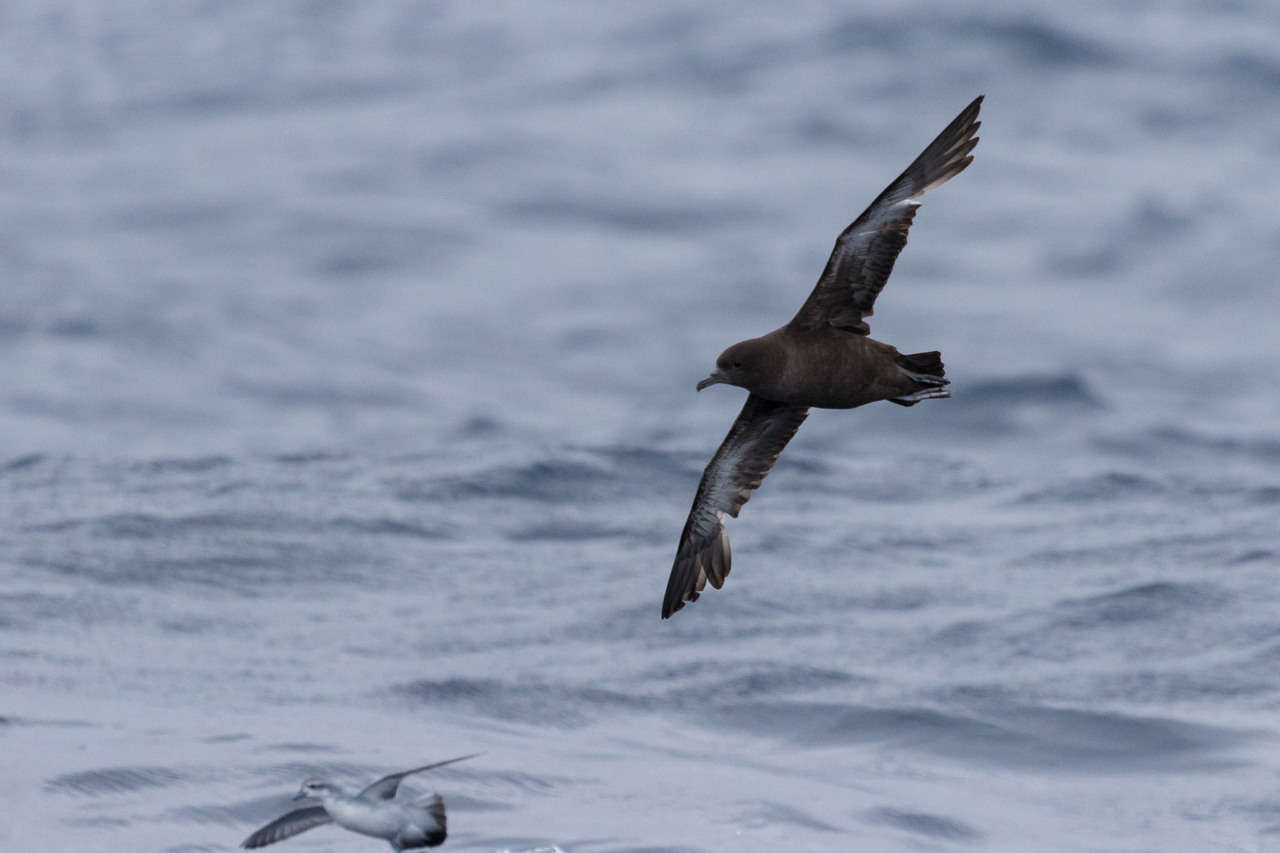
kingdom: Animalia
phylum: Chordata
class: Aves
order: Procellariiformes
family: Procellariidae
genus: Puffinus
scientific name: Puffinus griseus
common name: Sooty shearwater
